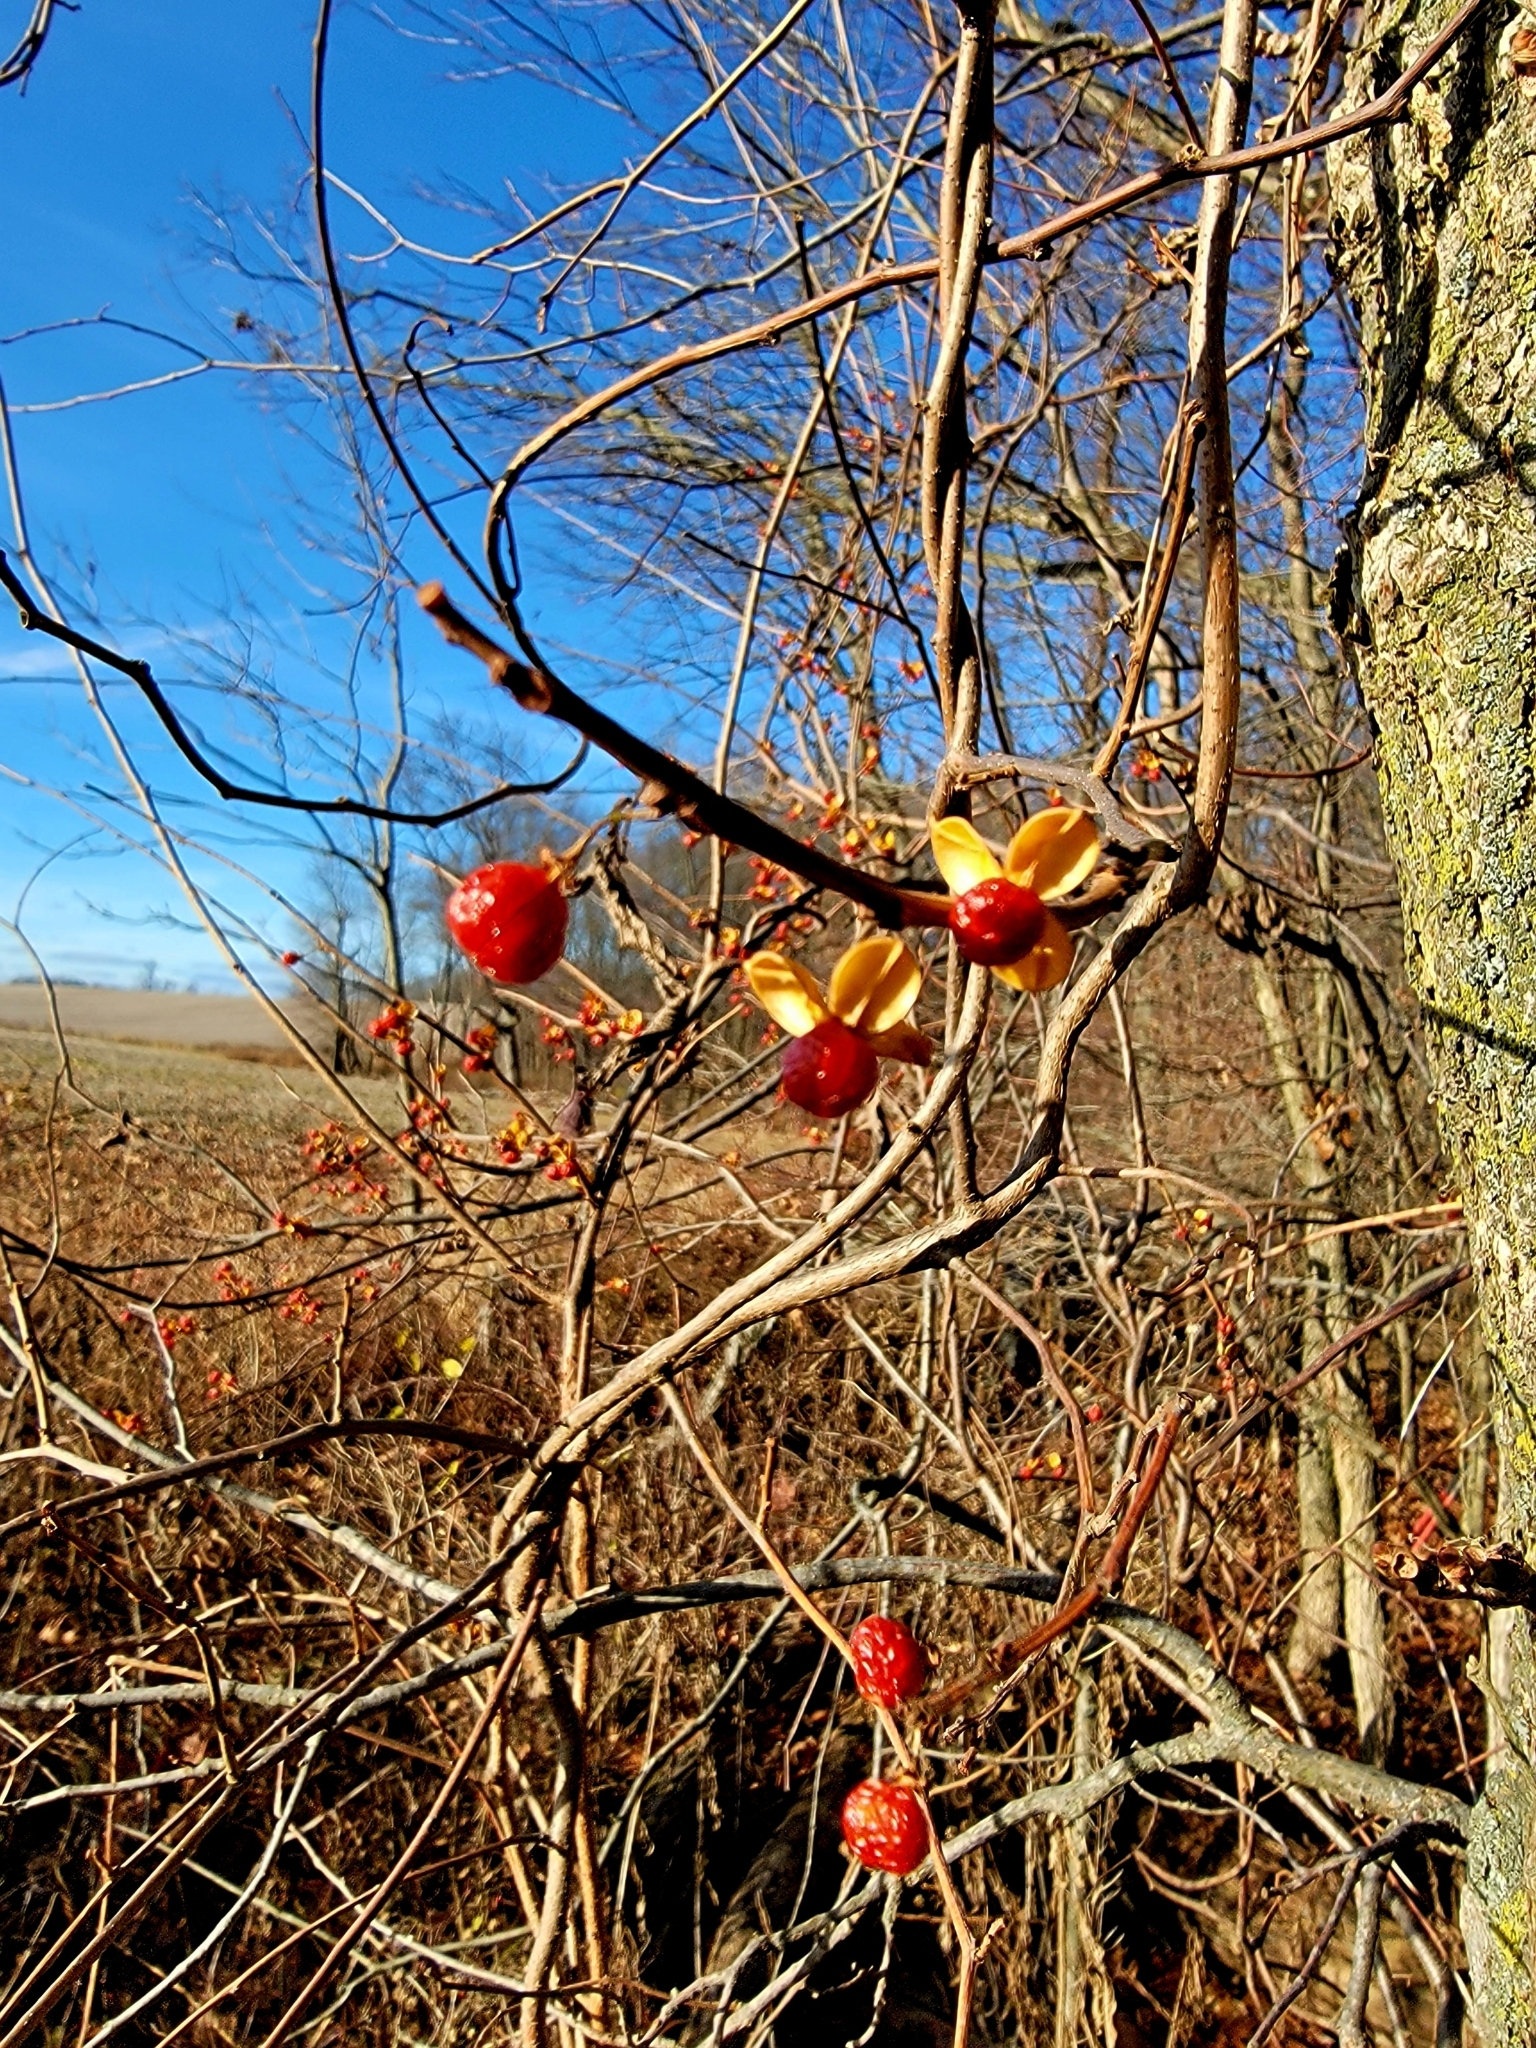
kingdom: Plantae
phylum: Tracheophyta
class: Magnoliopsida
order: Celastrales
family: Celastraceae
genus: Celastrus
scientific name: Celastrus orbiculatus
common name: Oriental bittersweet
